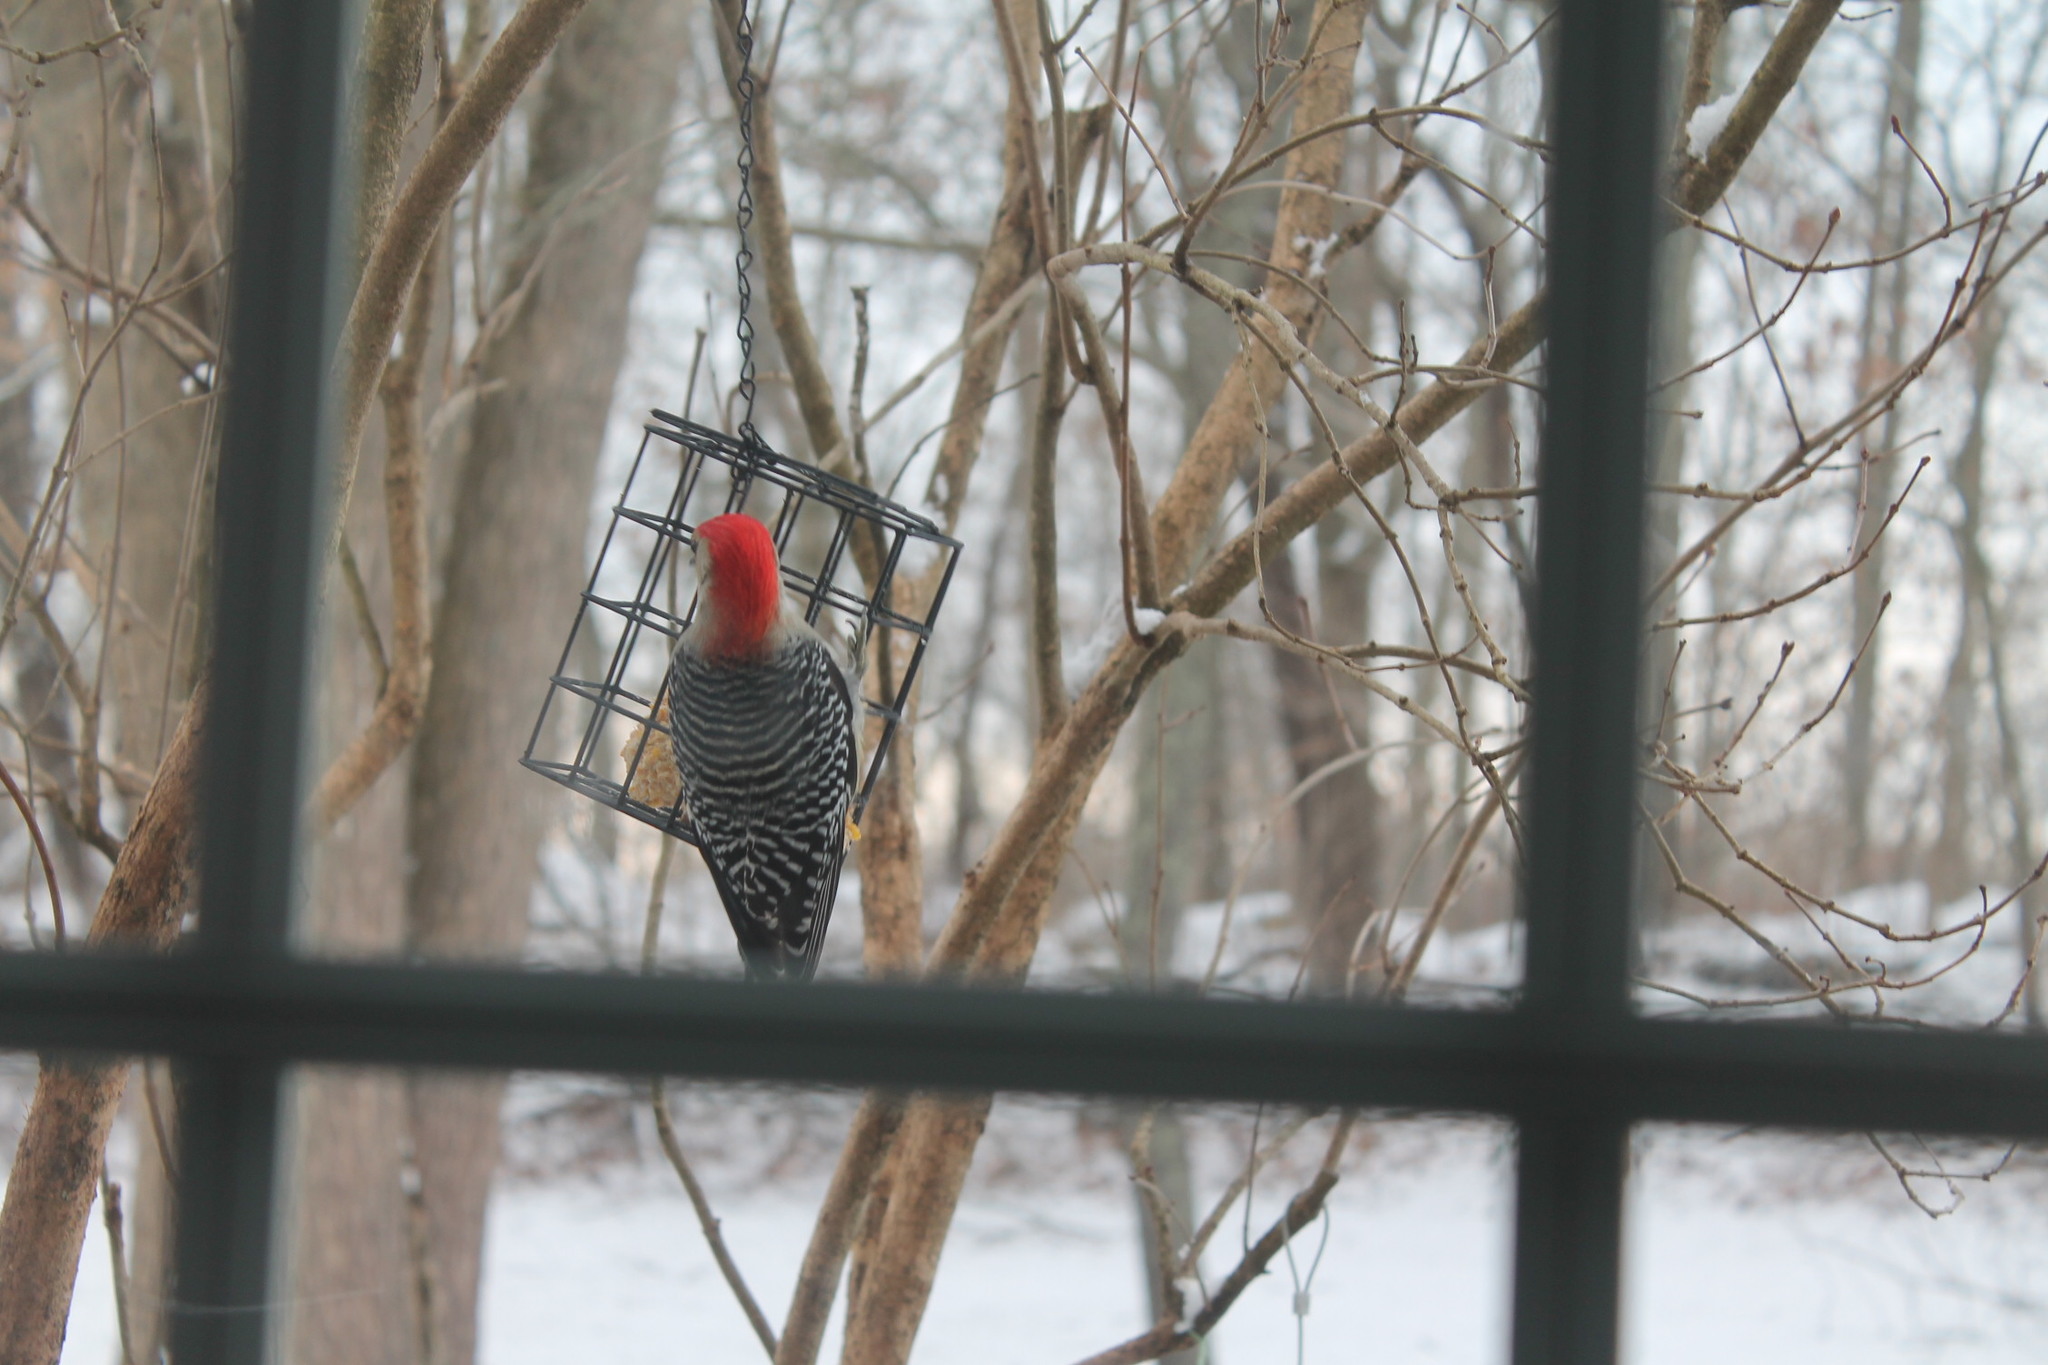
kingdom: Animalia
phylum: Chordata
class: Aves
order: Piciformes
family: Picidae
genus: Melanerpes
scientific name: Melanerpes carolinus
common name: Red-bellied woodpecker
